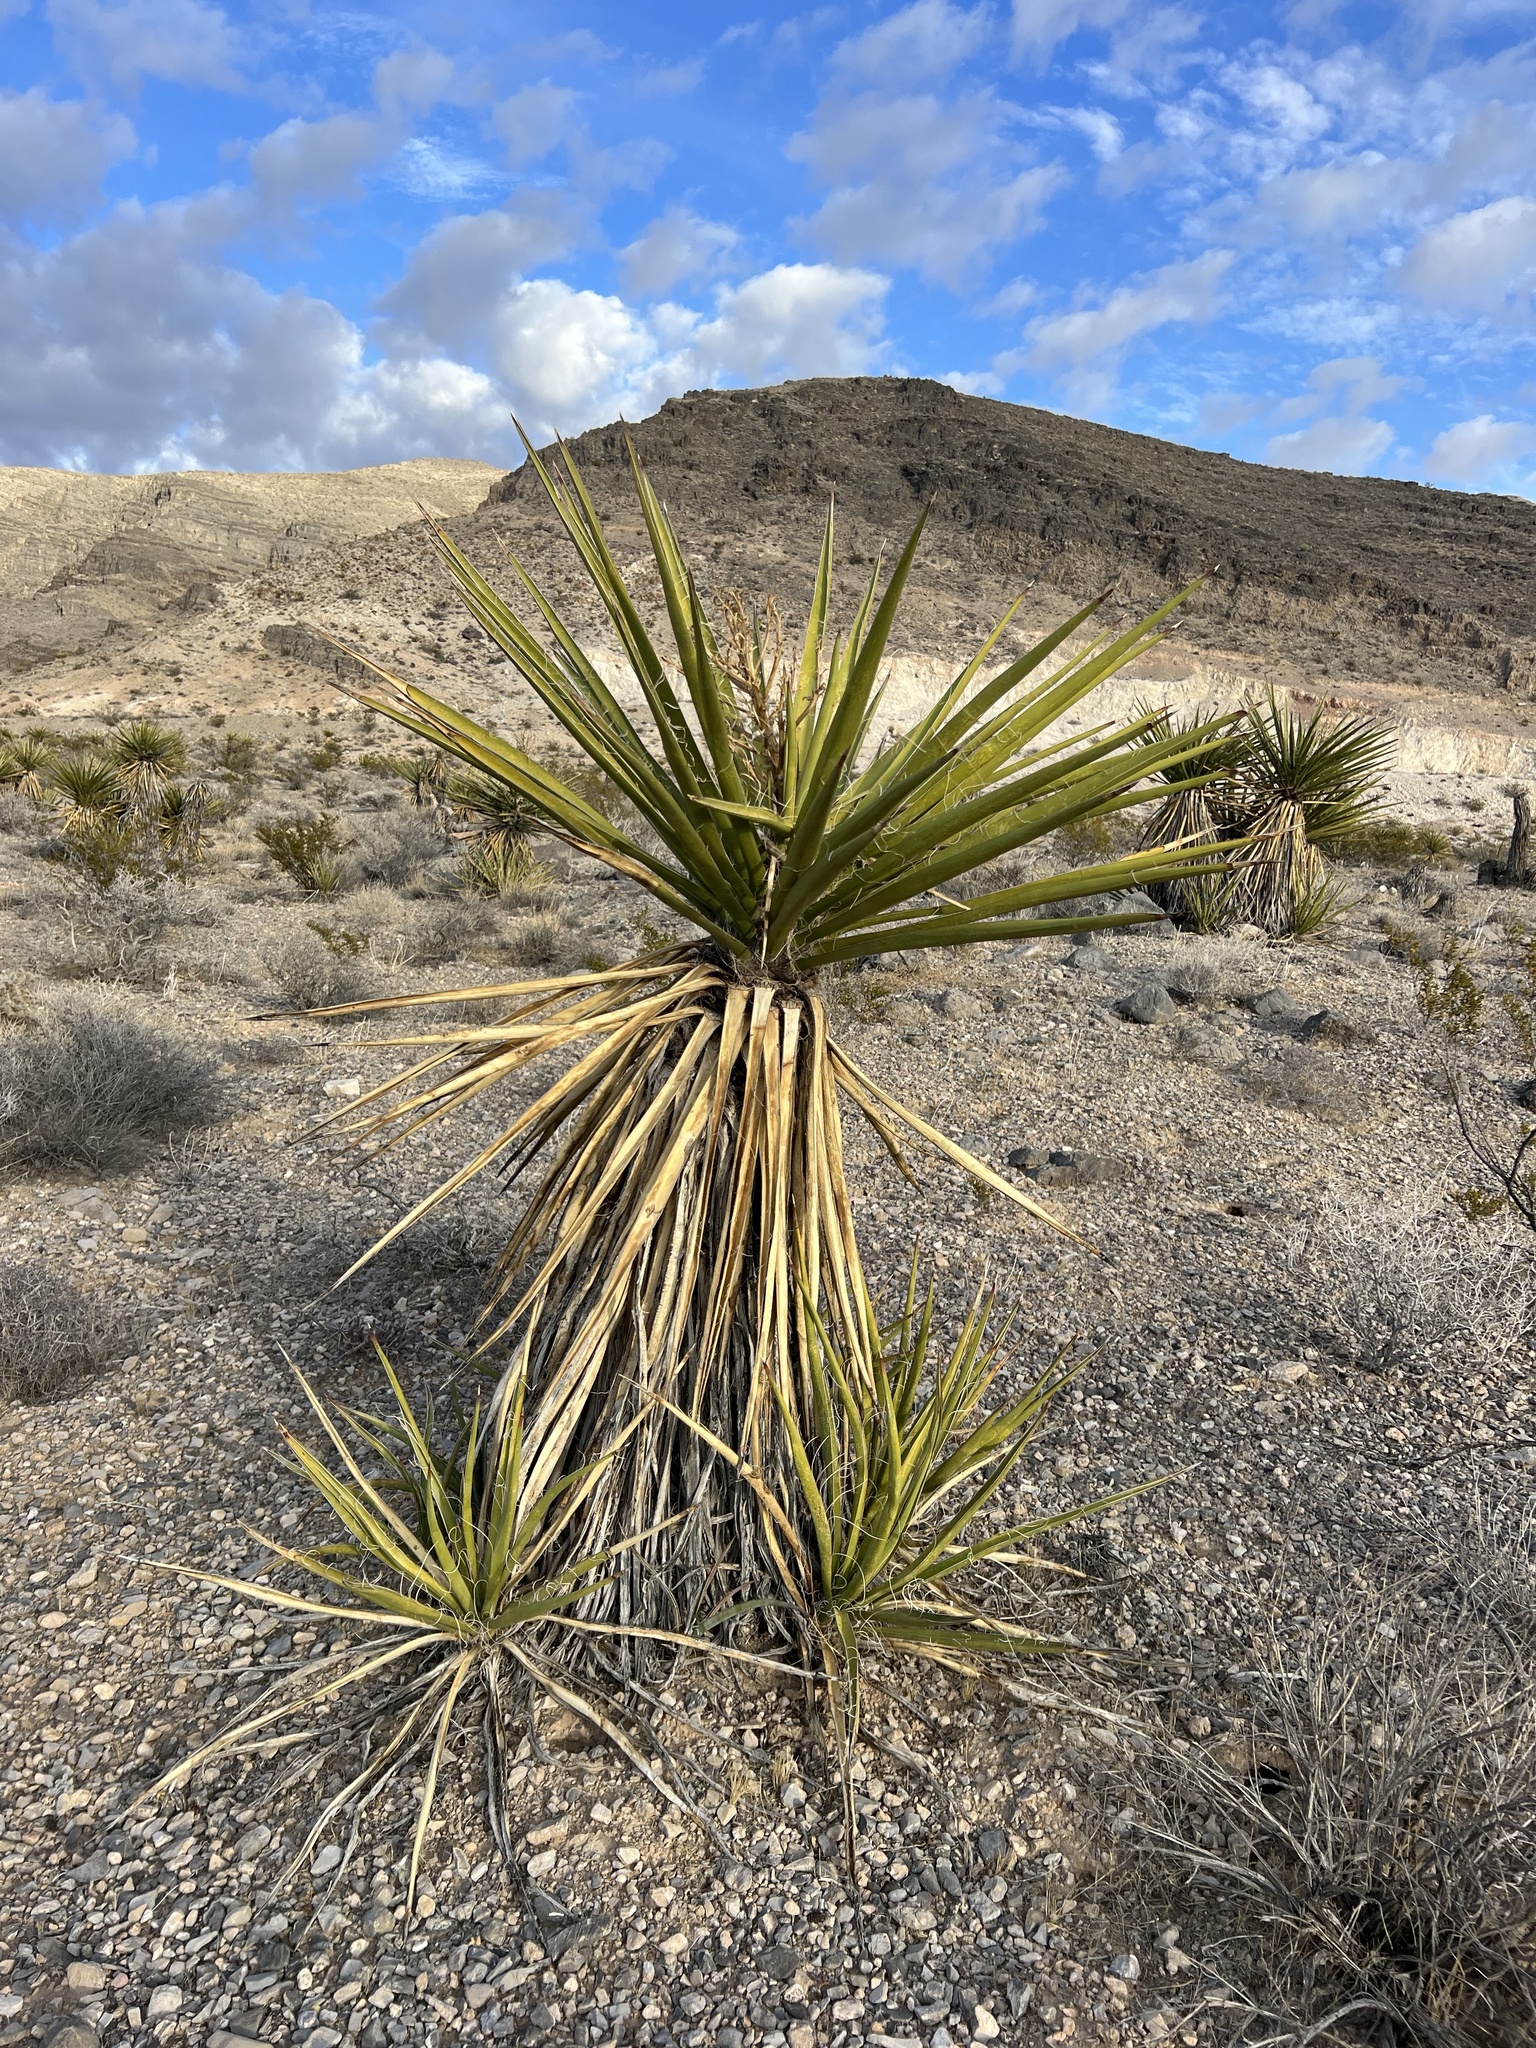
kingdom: Plantae
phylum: Tracheophyta
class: Liliopsida
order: Asparagales
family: Asparagaceae
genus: Yucca
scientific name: Yucca schidigera
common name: Mojave yucca
